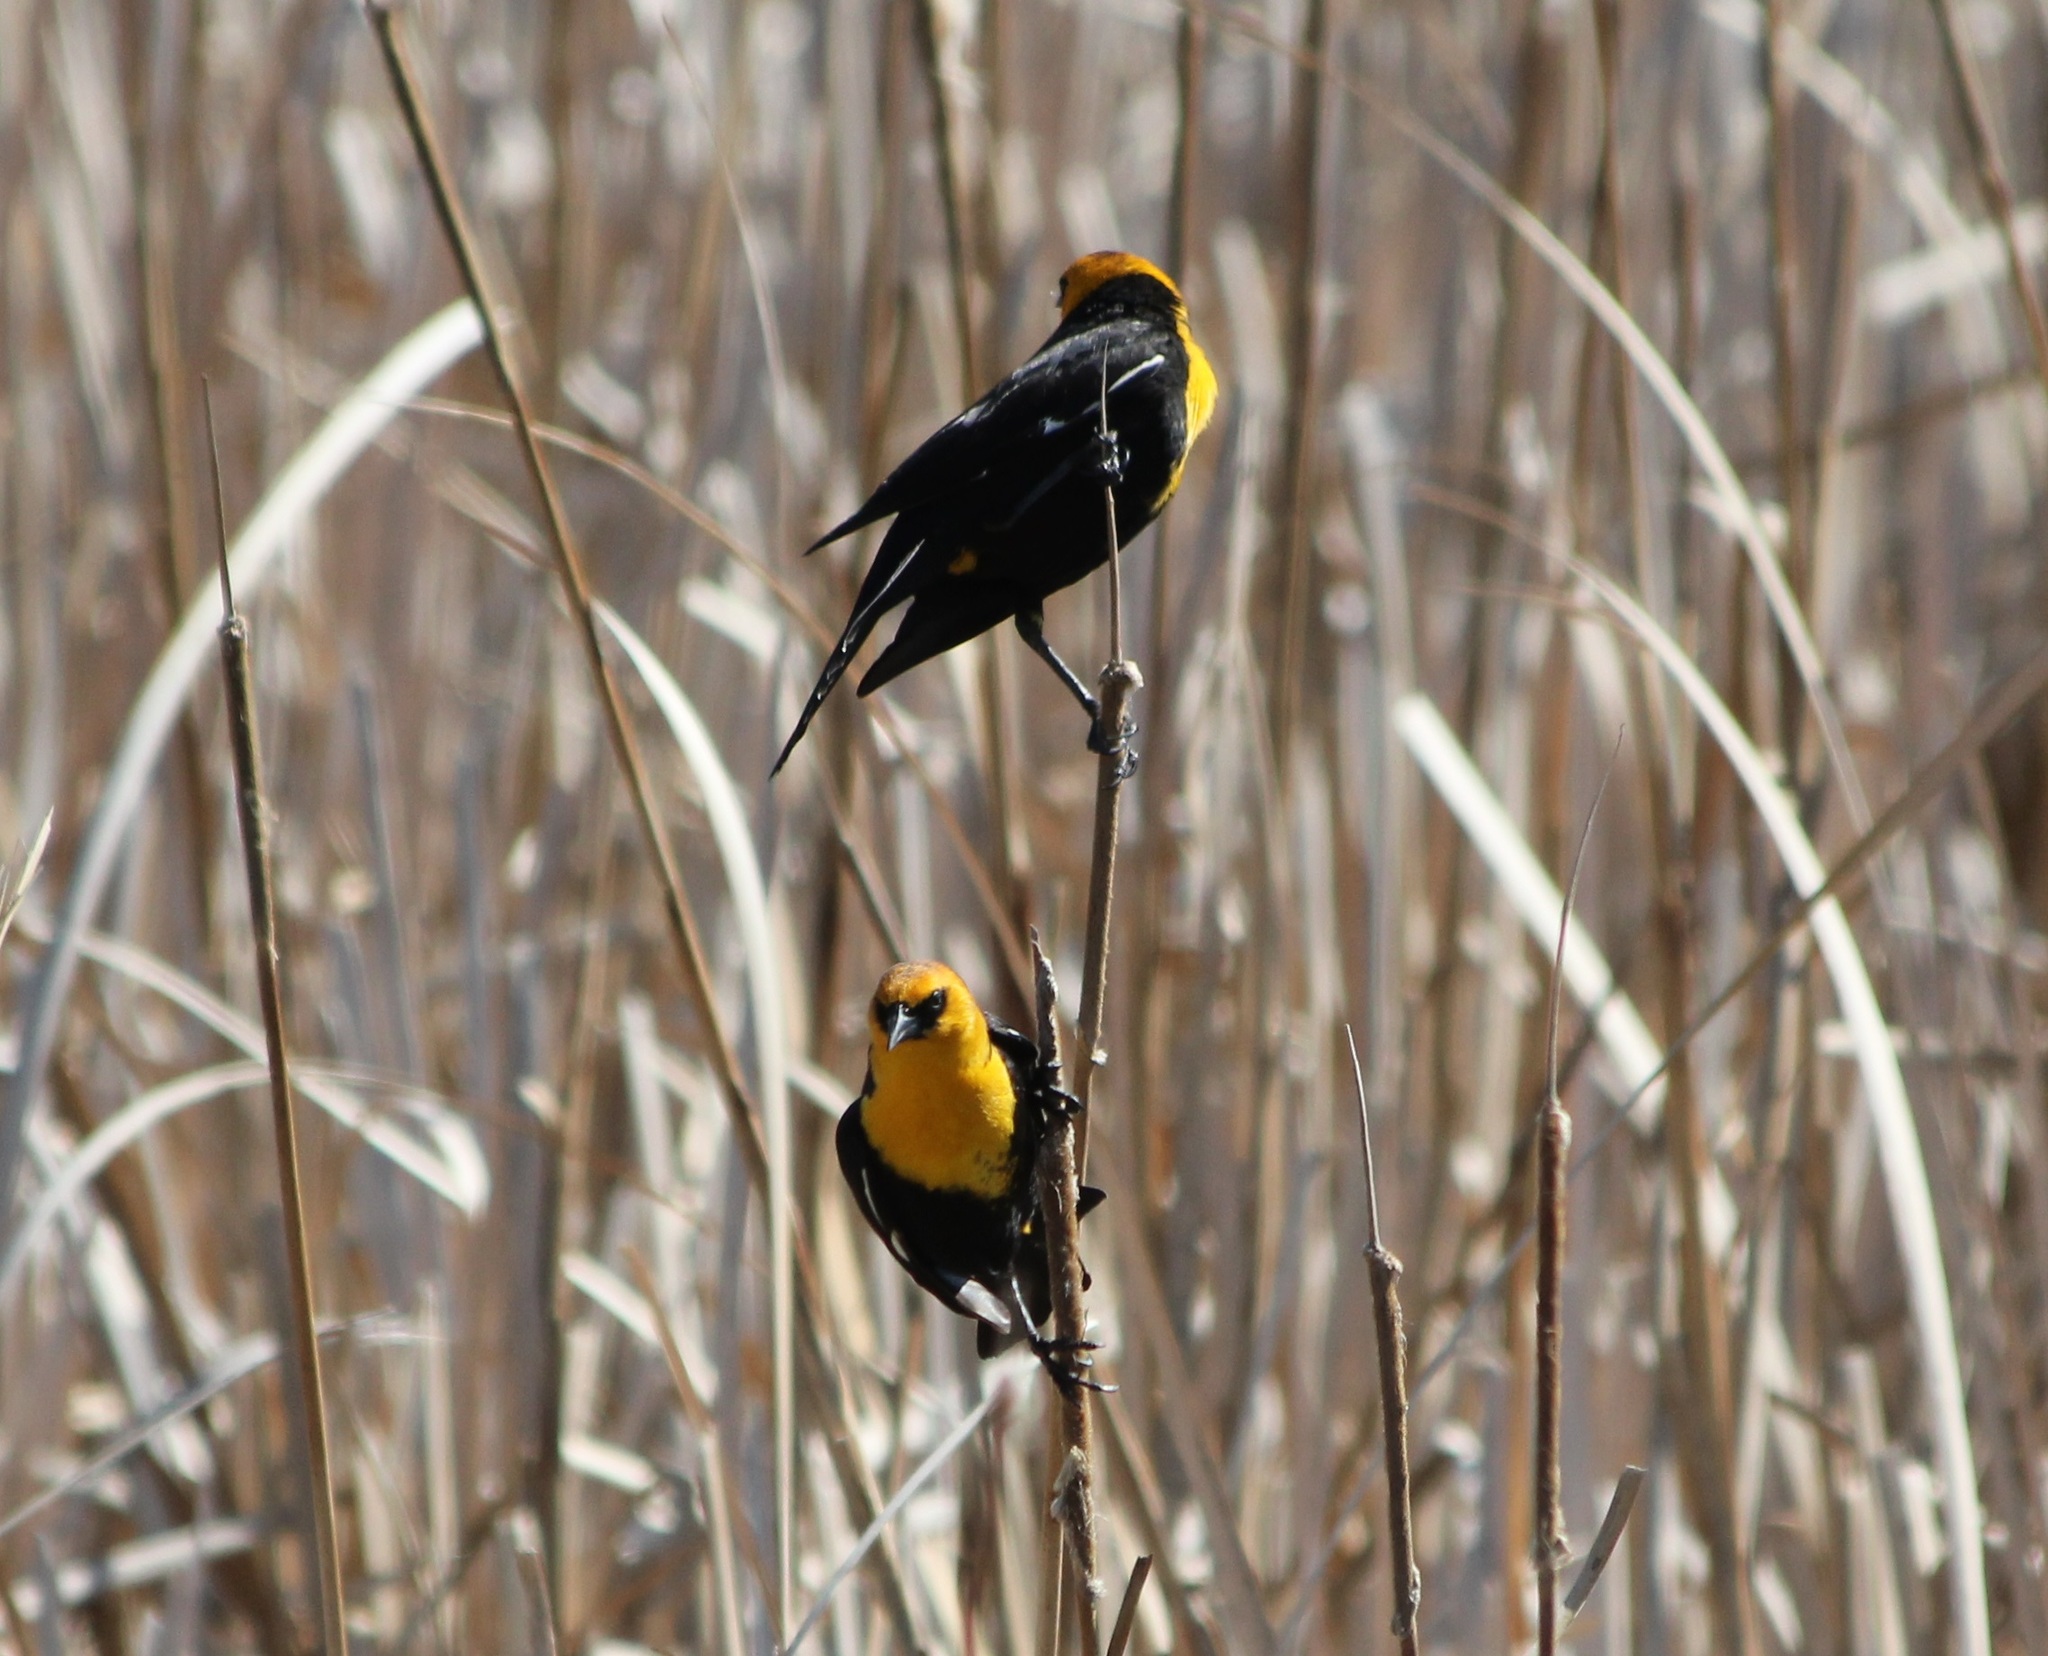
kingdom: Animalia
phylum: Chordata
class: Aves
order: Passeriformes
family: Icteridae
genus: Xanthocephalus
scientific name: Xanthocephalus xanthocephalus
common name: Yellow-headed blackbird
